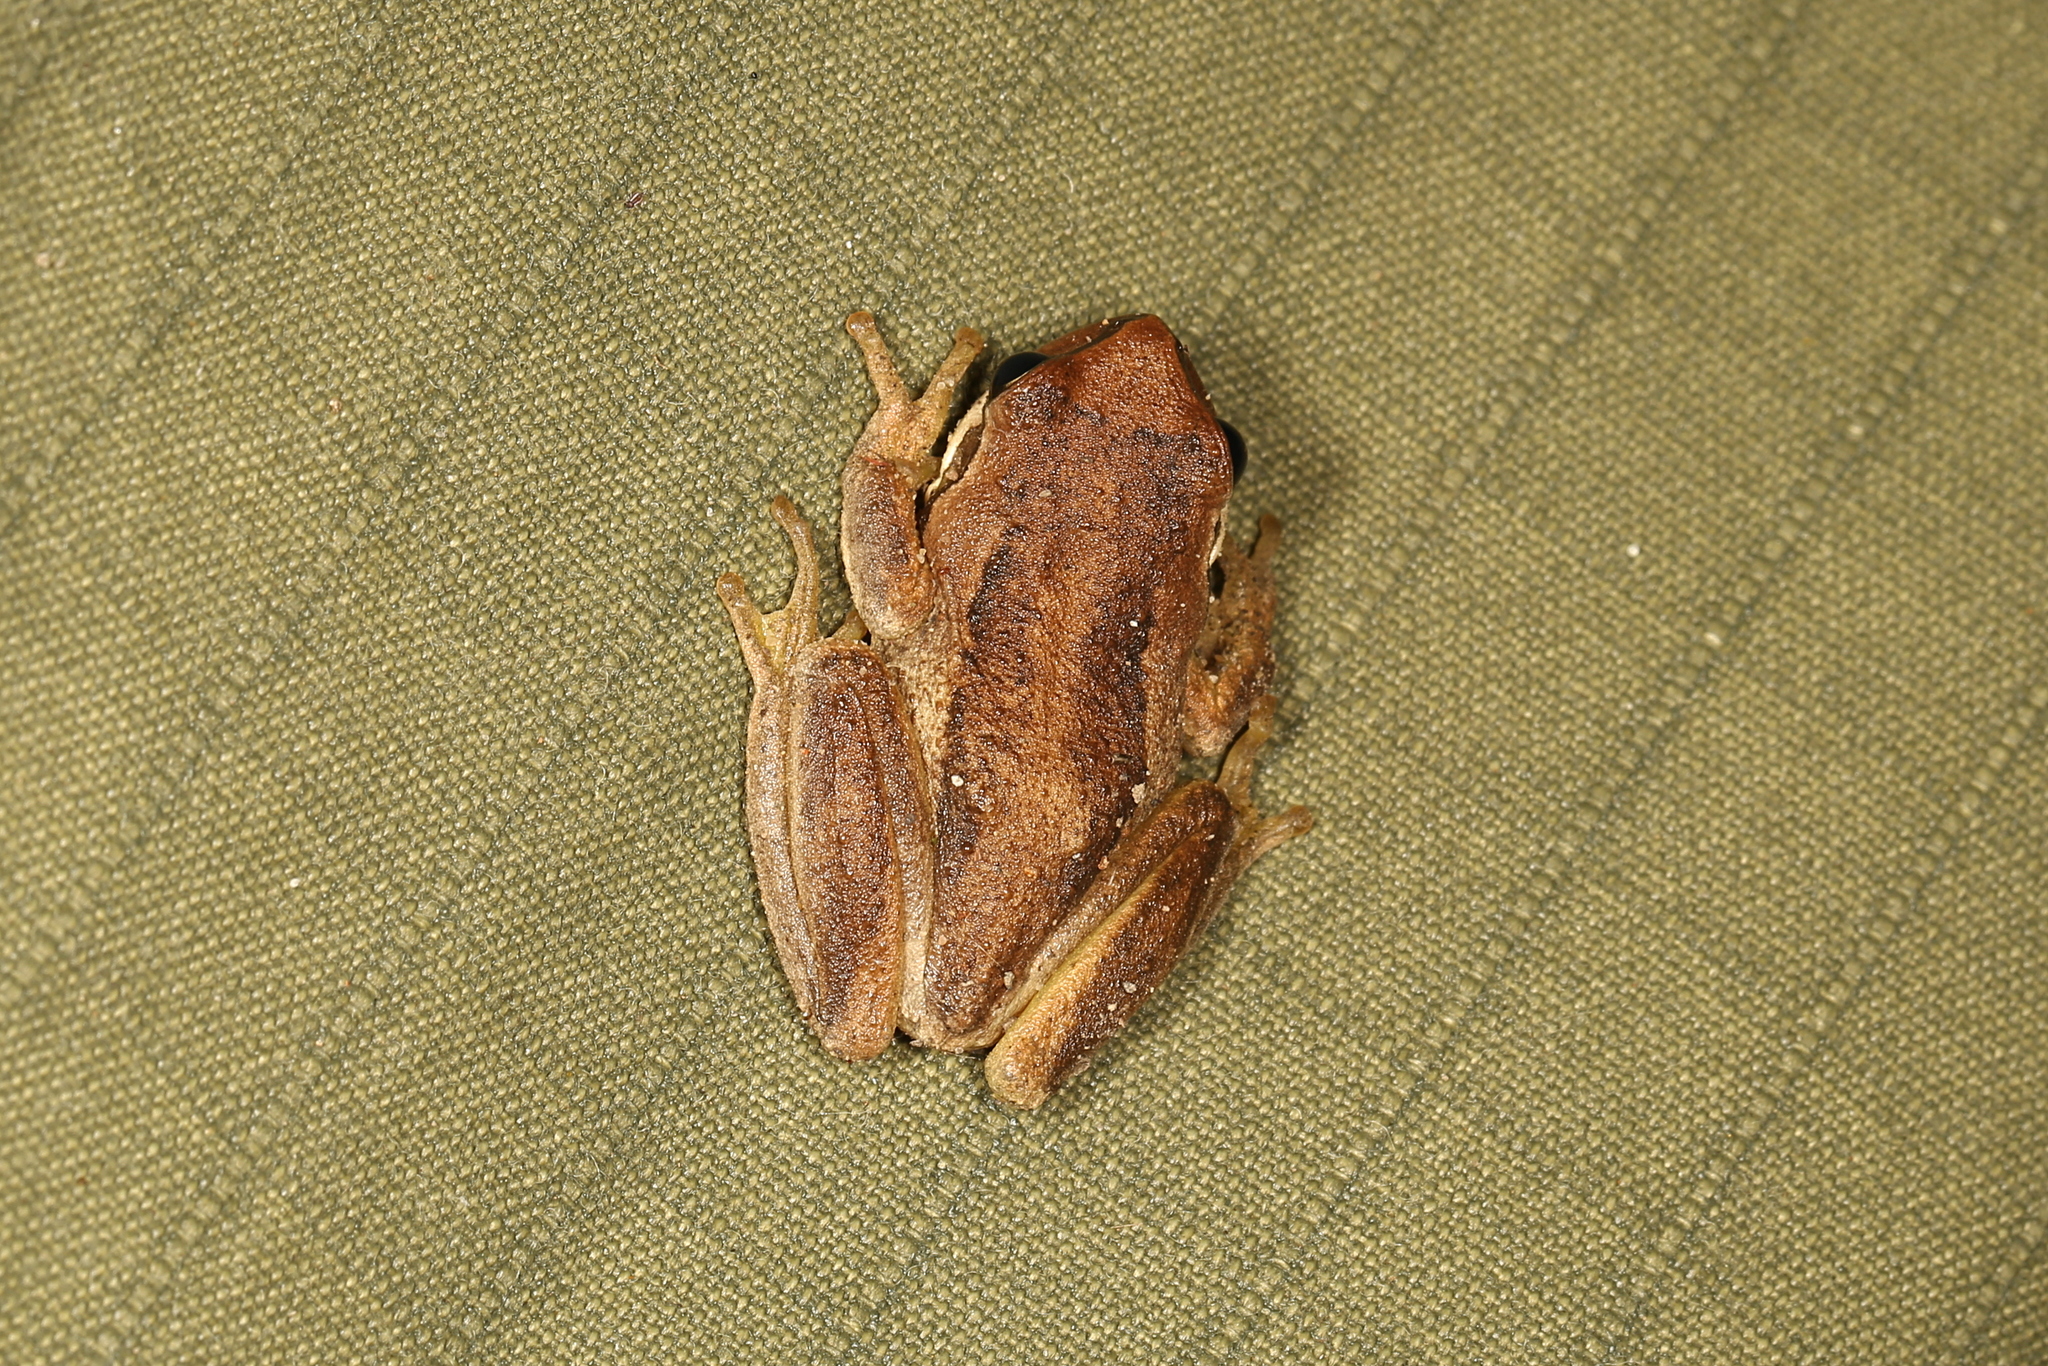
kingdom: Animalia
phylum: Chordata
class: Amphibia
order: Anura
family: Pelodryadidae
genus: Litoria
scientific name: Litoria ewingii
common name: Southern brown tree frog
